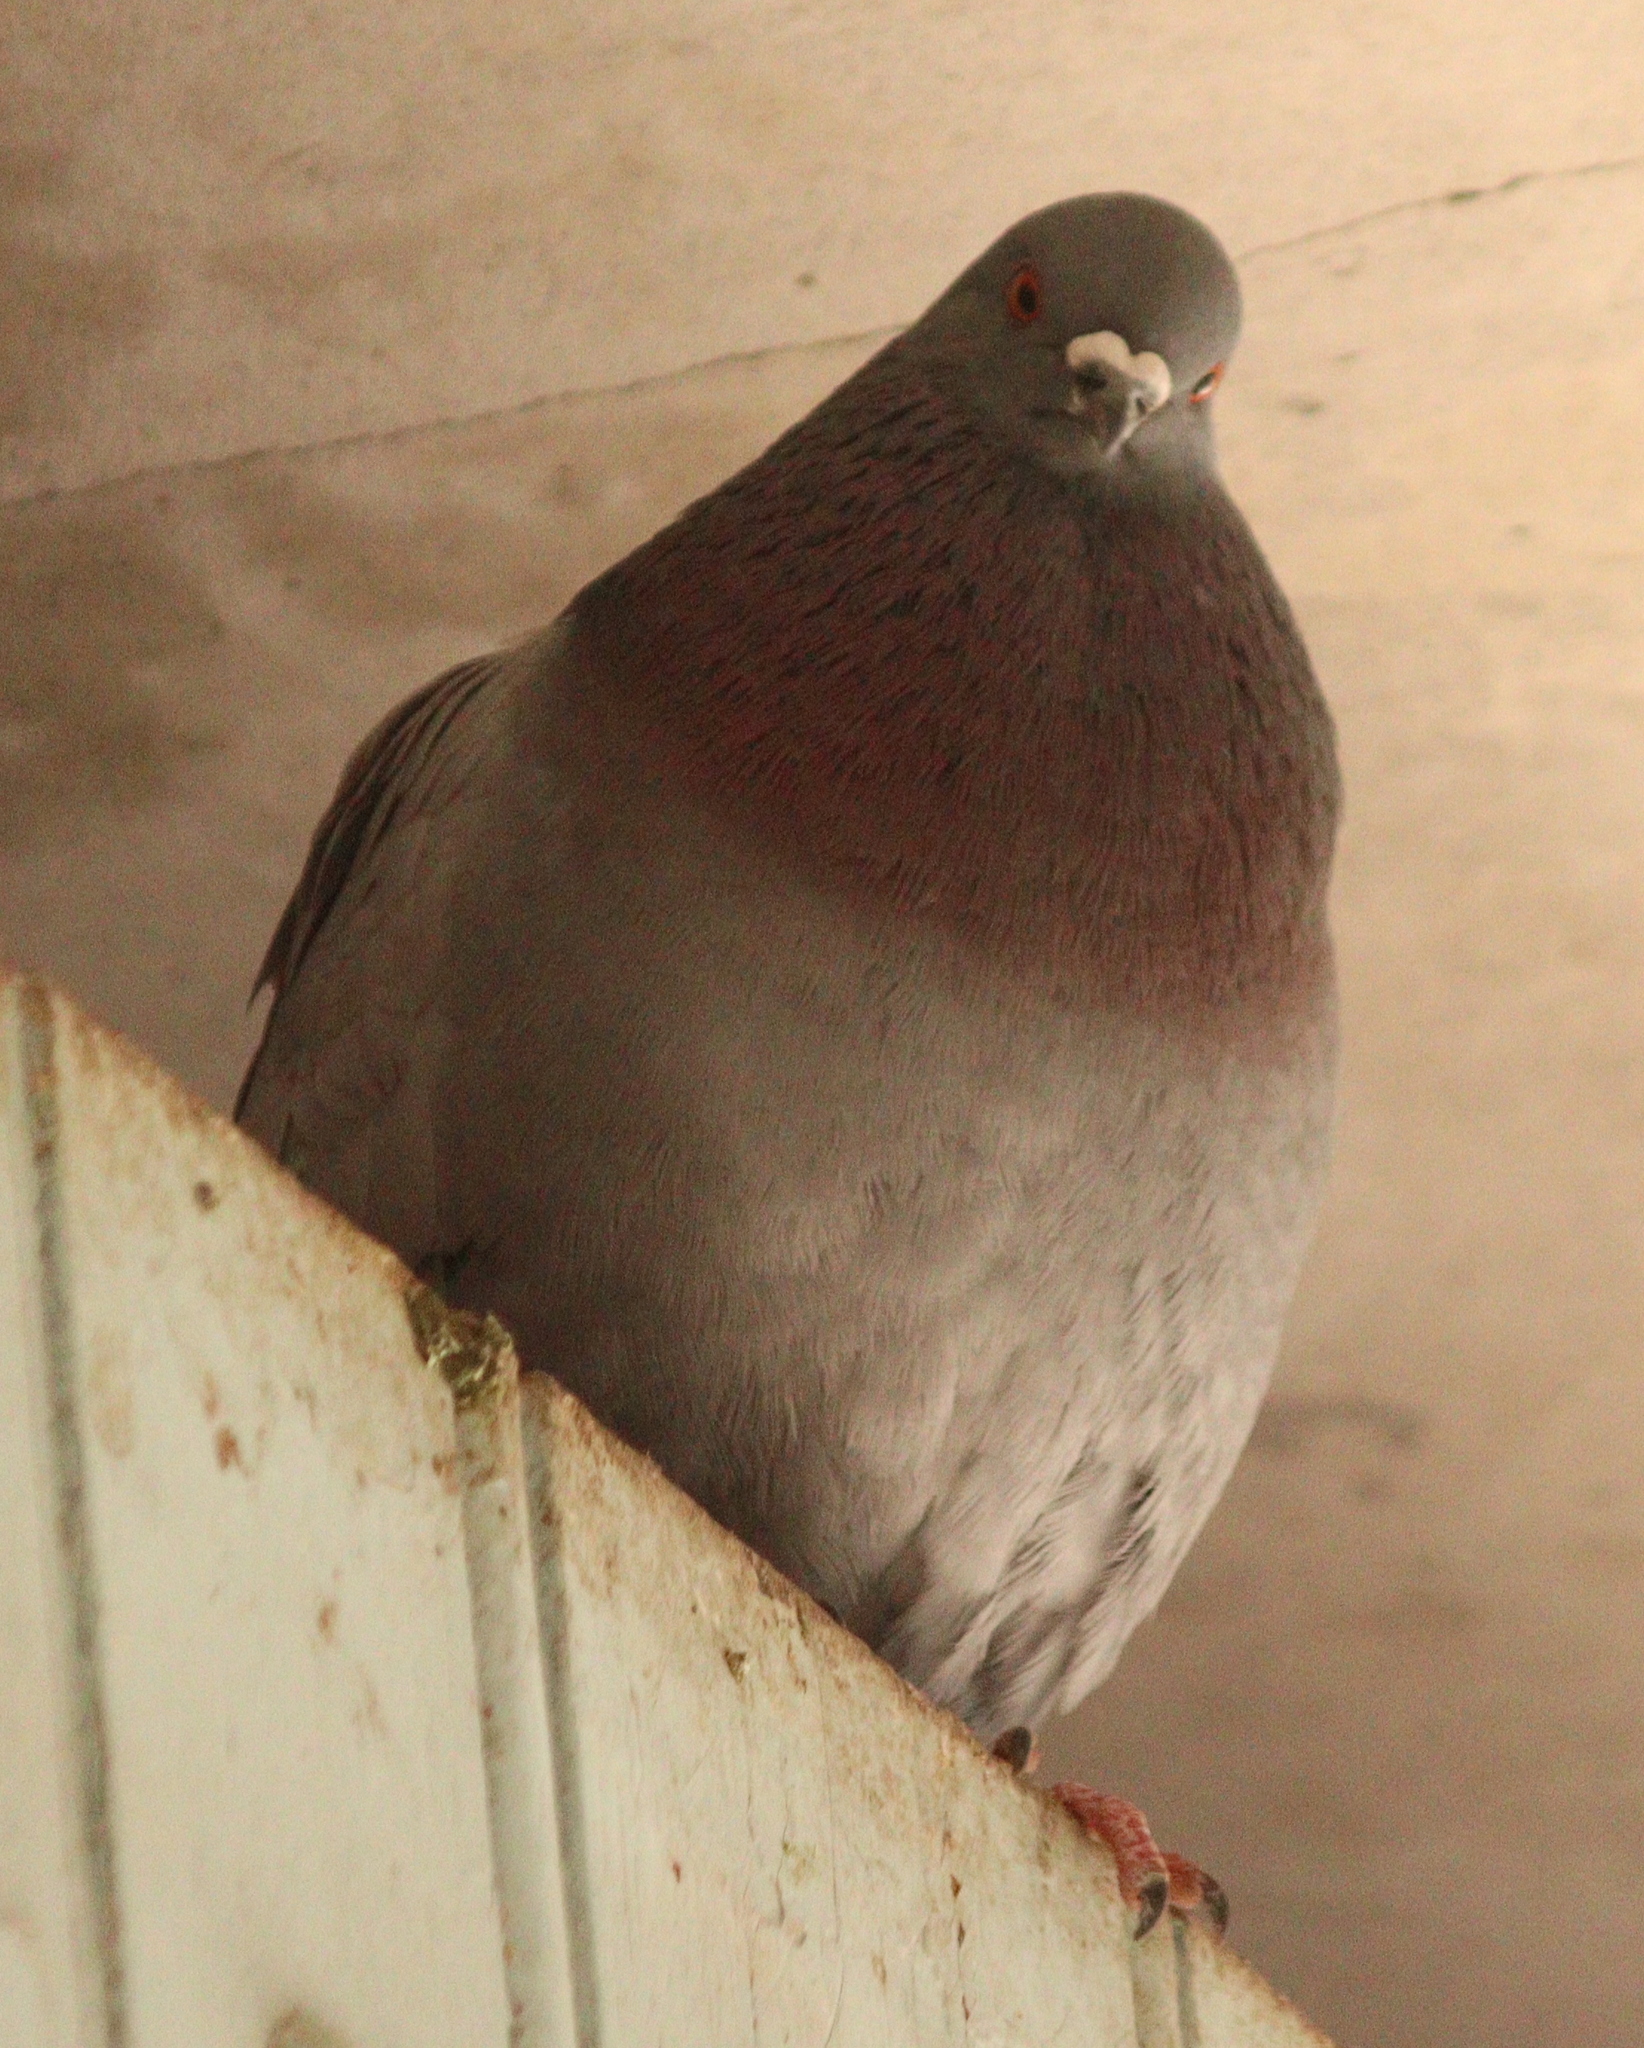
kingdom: Animalia
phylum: Chordata
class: Aves
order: Columbiformes
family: Columbidae
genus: Columba
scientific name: Columba livia
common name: Rock pigeon
